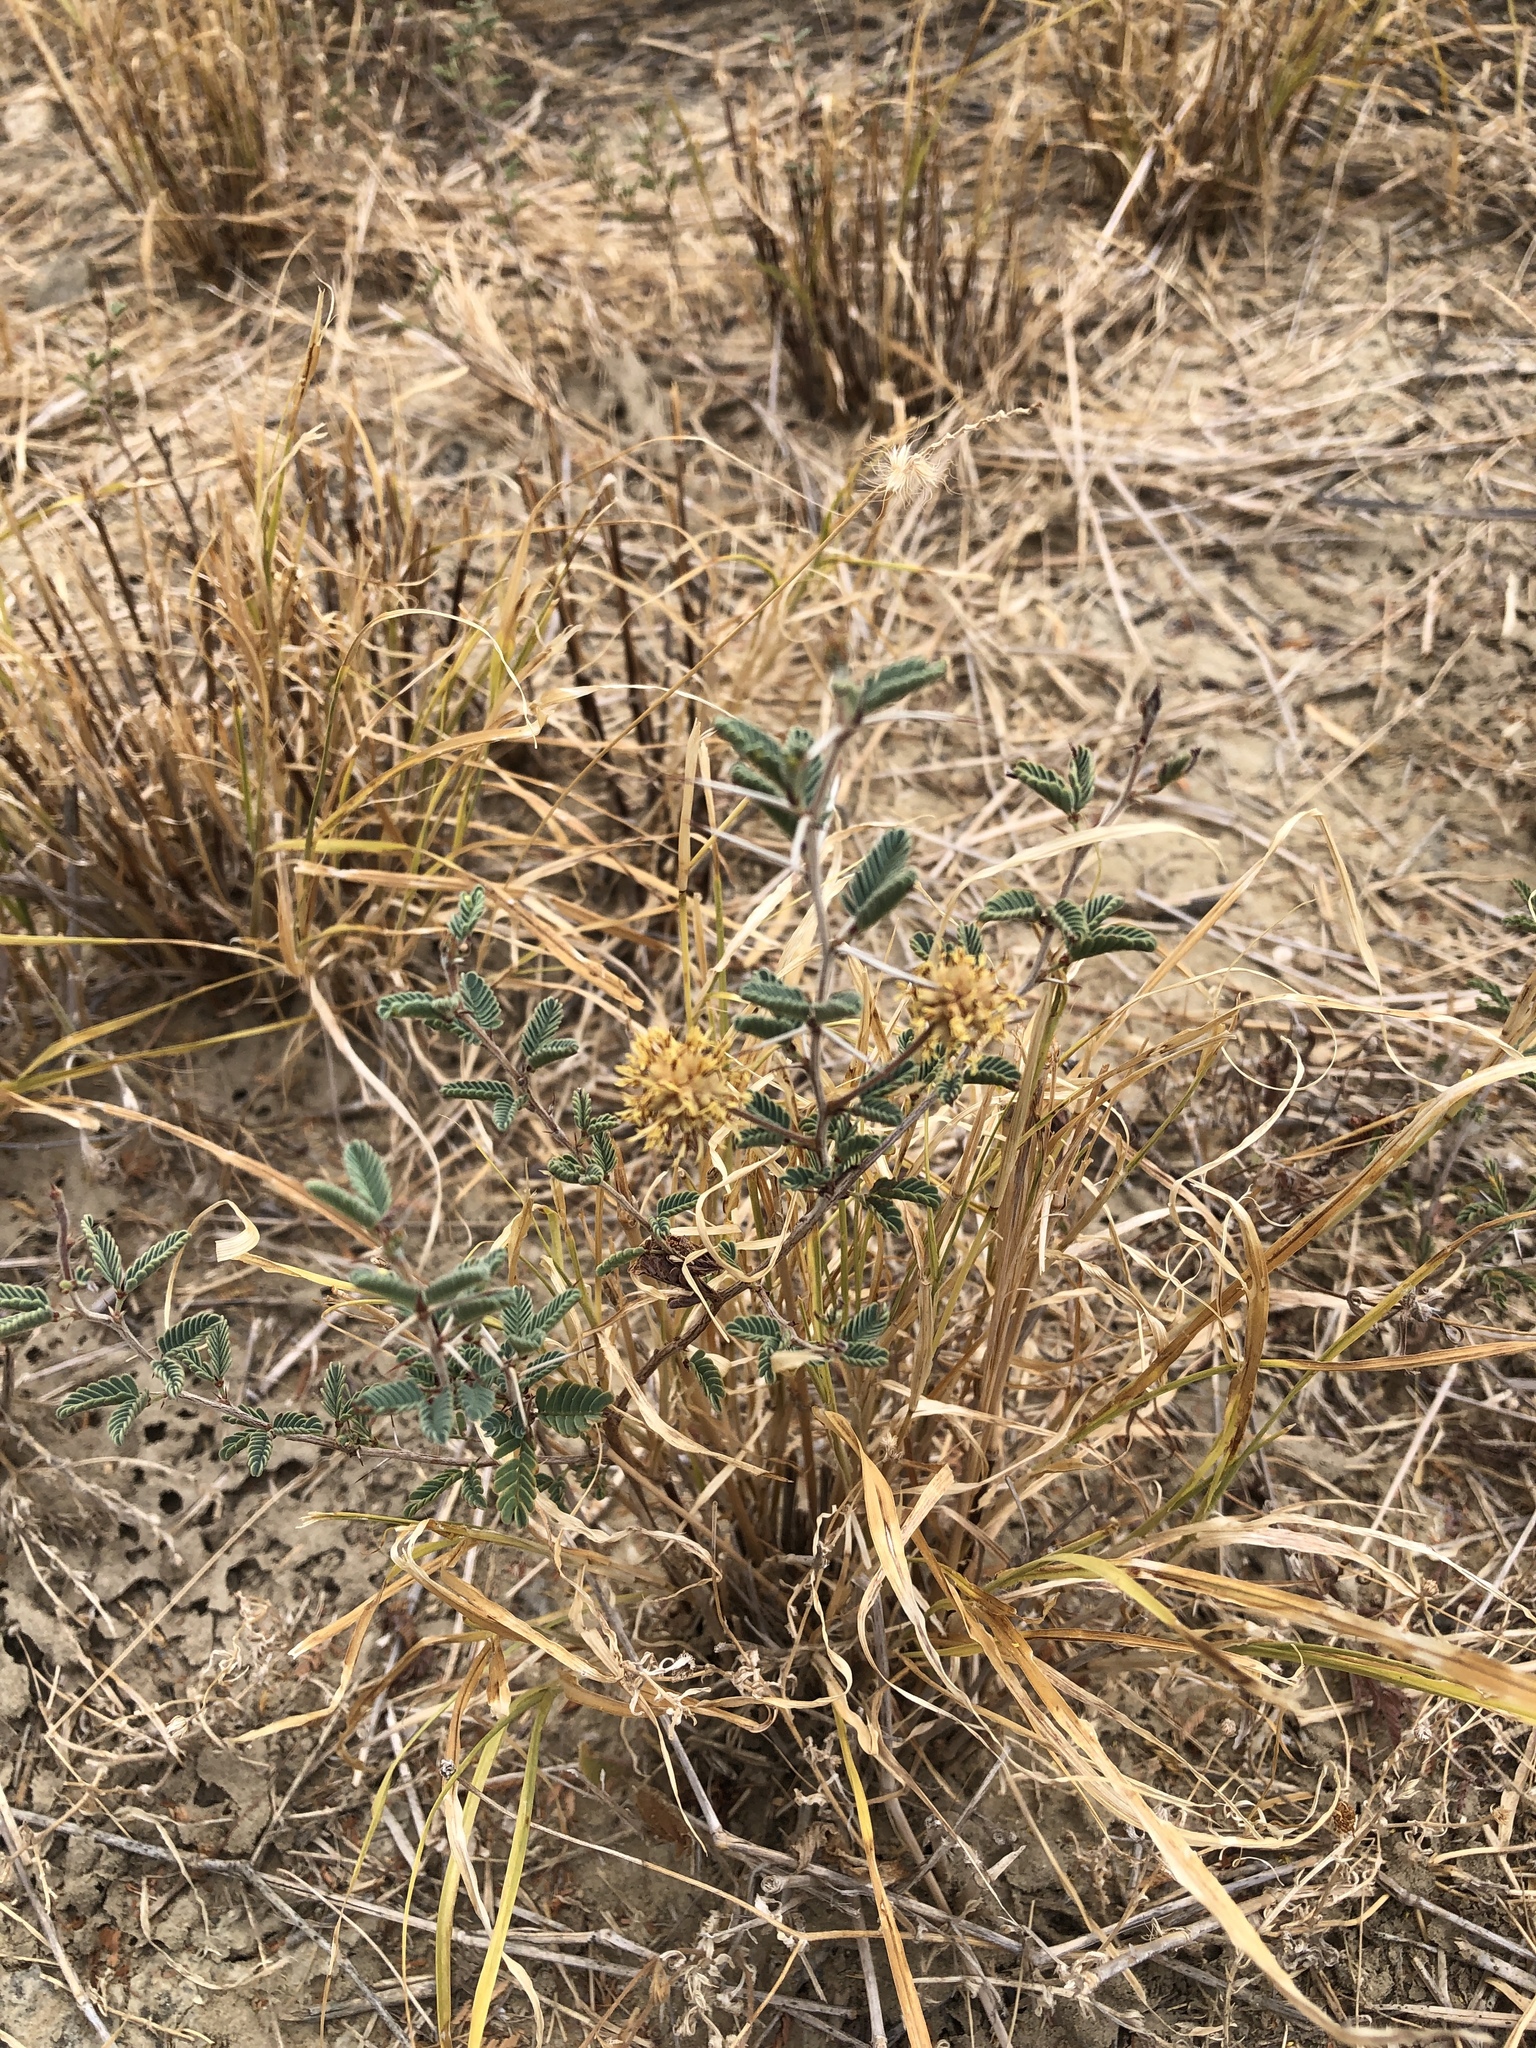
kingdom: Plantae
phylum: Tracheophyta
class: Magnoliopsida
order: Fabales
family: Fabaceae
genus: Prosopis
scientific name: Prosopis cinerascens
